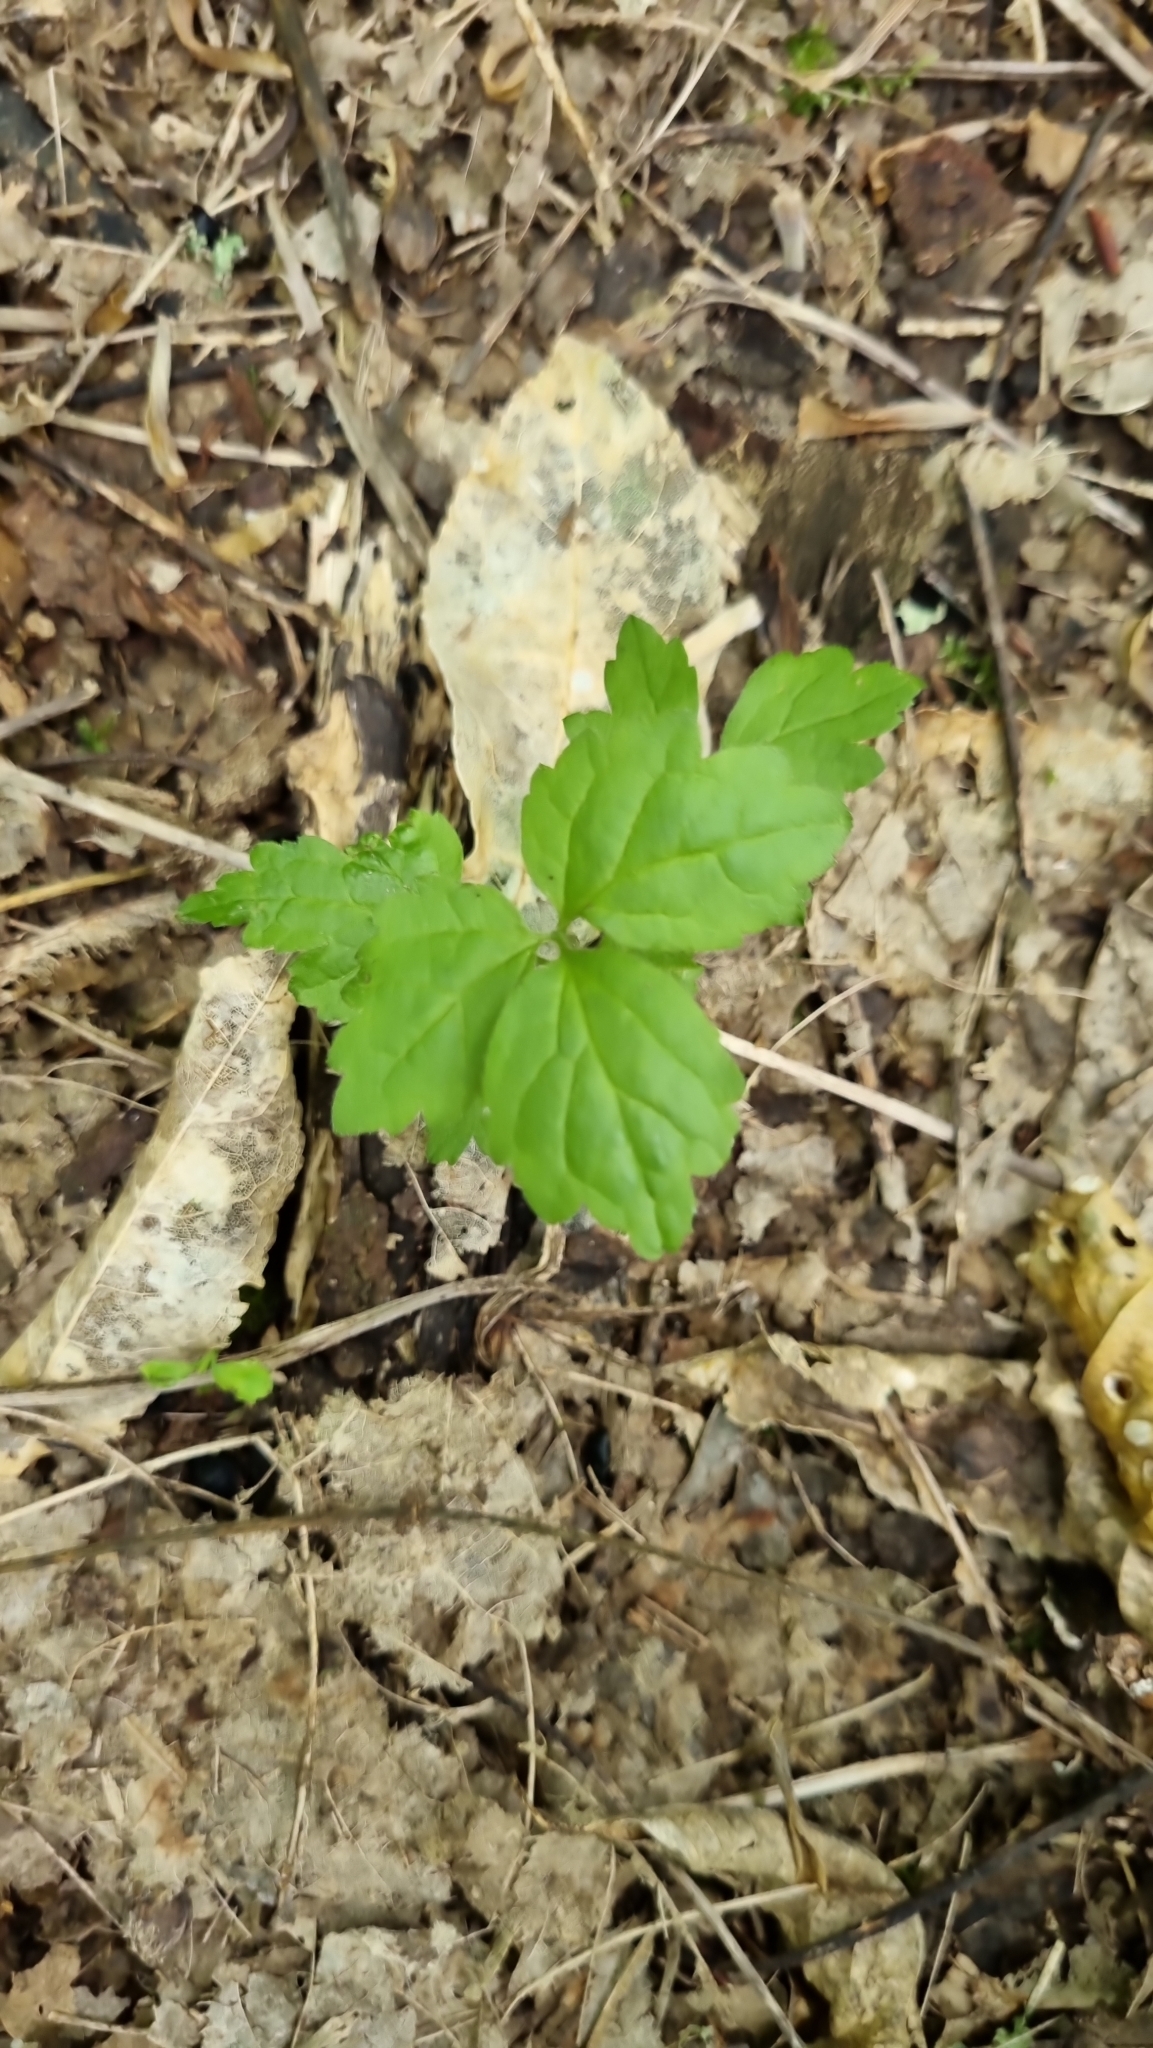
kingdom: Plantae
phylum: Tracheophyta
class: Magnoliopsida
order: Ranunculales
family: Ranunculaceae
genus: Clematis
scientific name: Clematis vitalba
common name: Evergreen clematis
